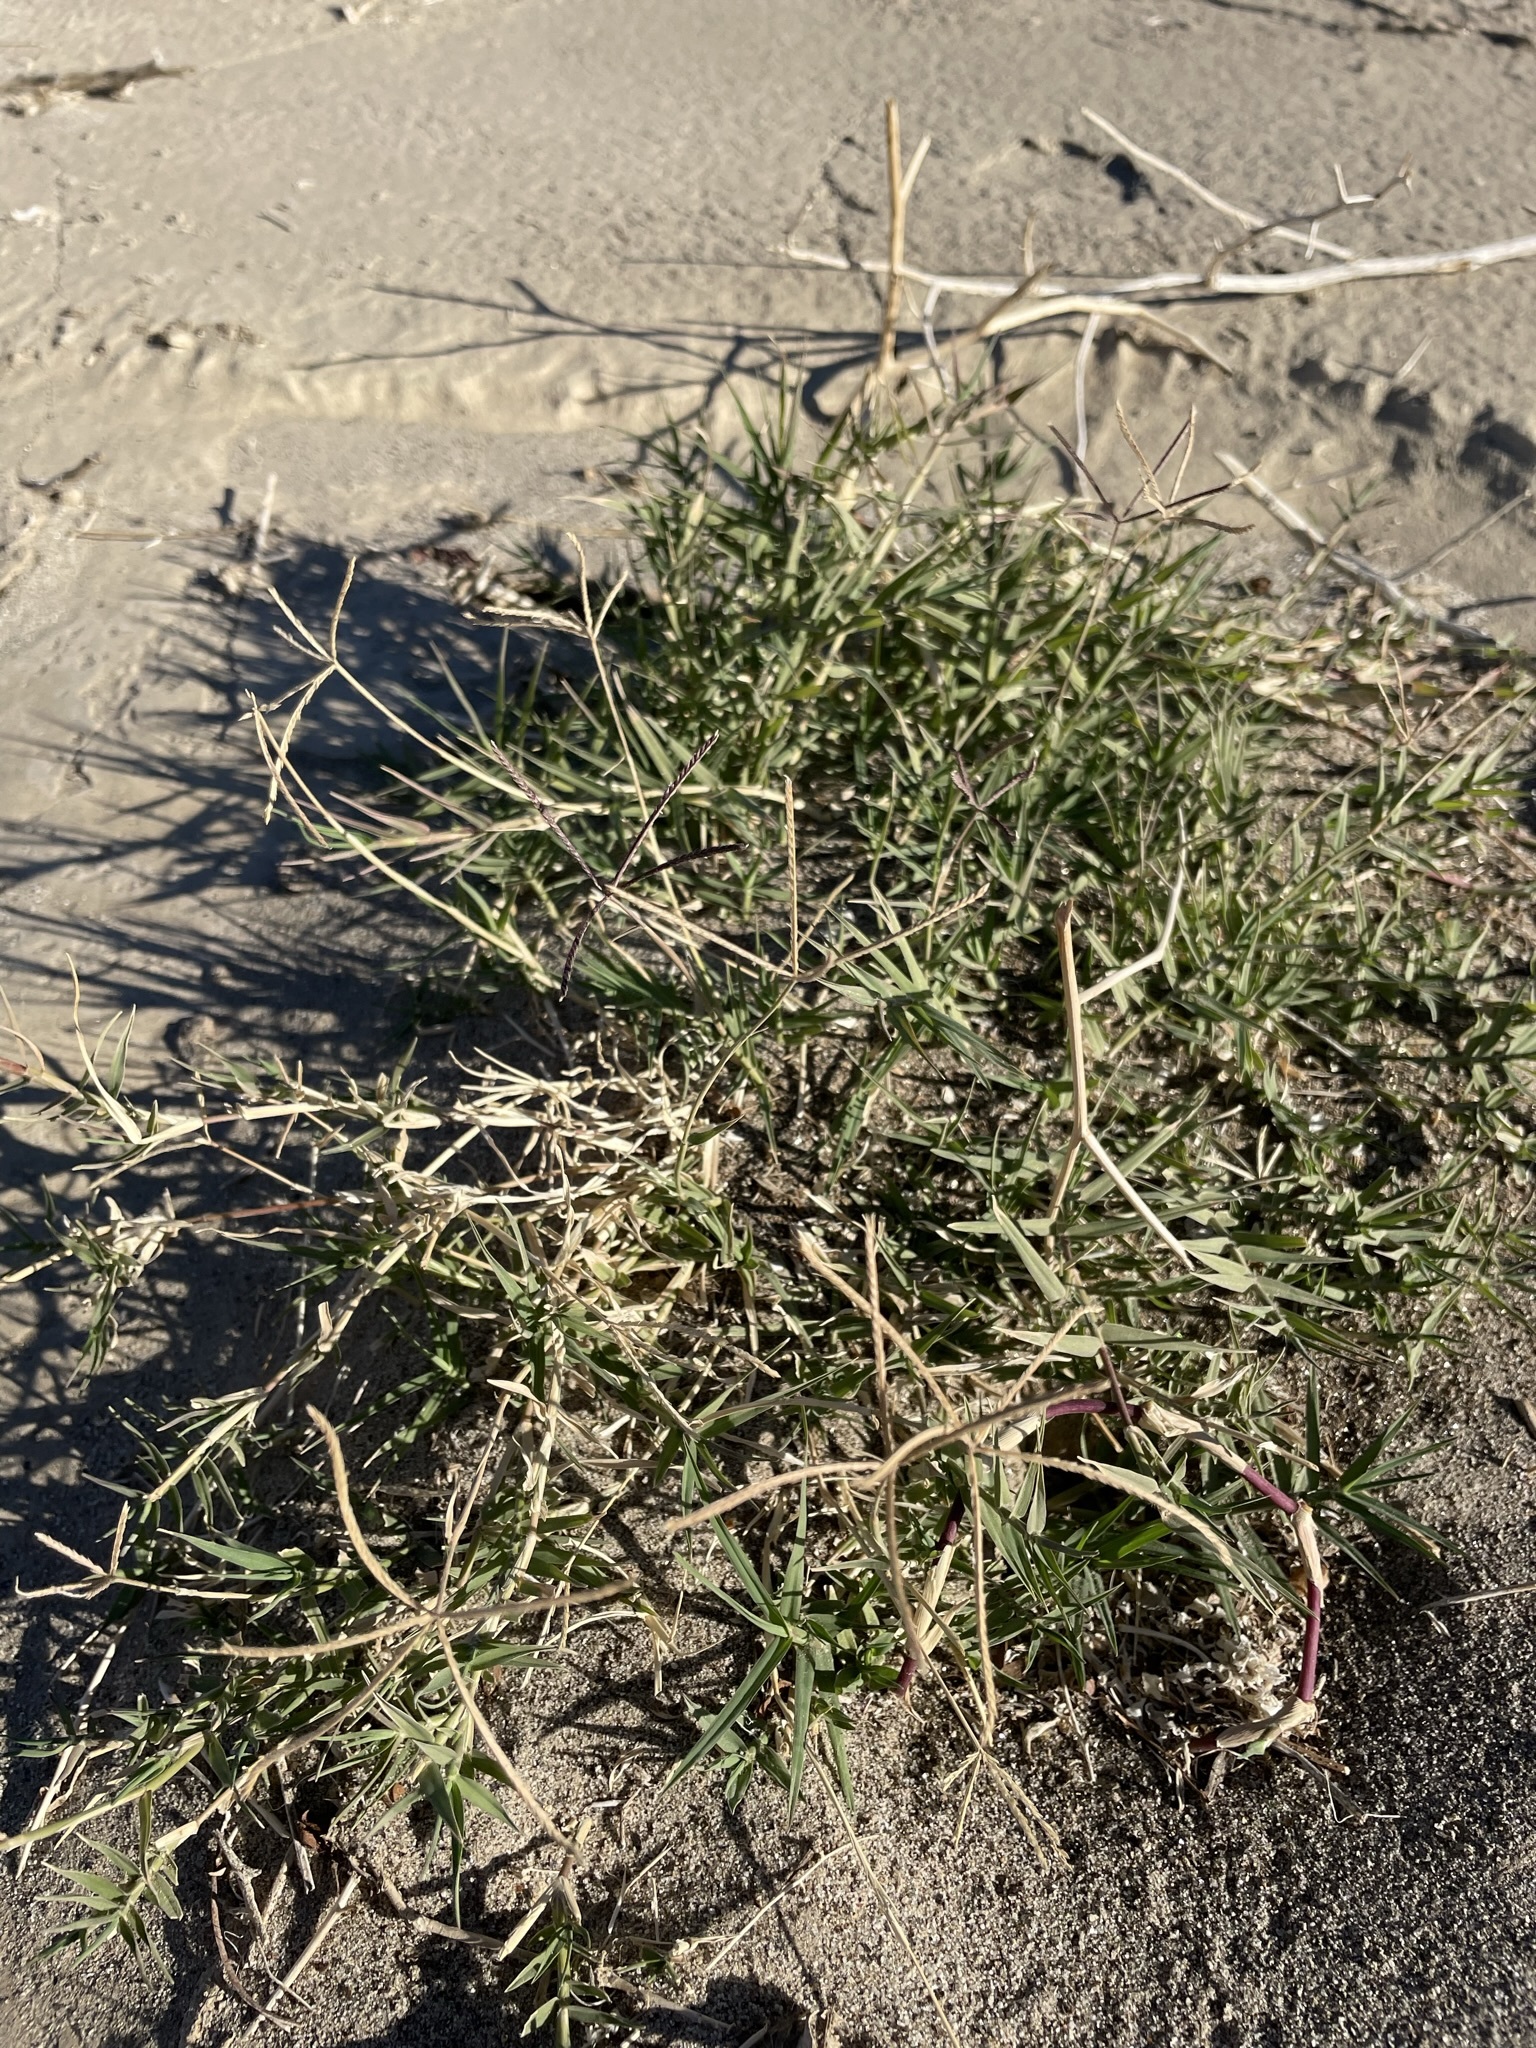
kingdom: Plantae
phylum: Tracheophyta
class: Liliopsida
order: Poales
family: Poaceae
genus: Cynodon
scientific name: Cynodon dactylon
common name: Bermuda grass
